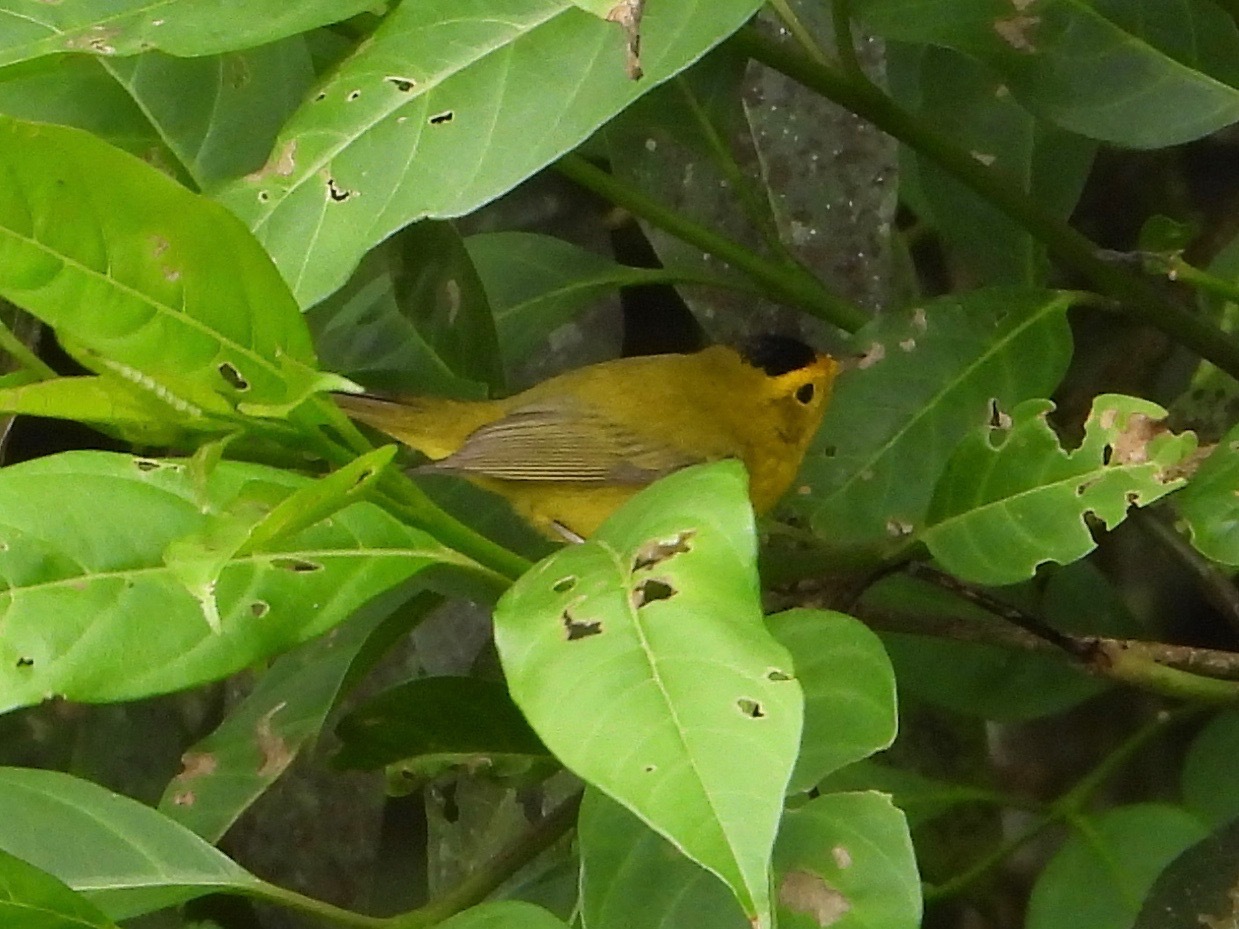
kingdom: Animalia
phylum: Chordata
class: Aves
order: Passeriformes
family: Parulidae
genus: Cardellina
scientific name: Cardellina pusilla
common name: Wilson's warbler
